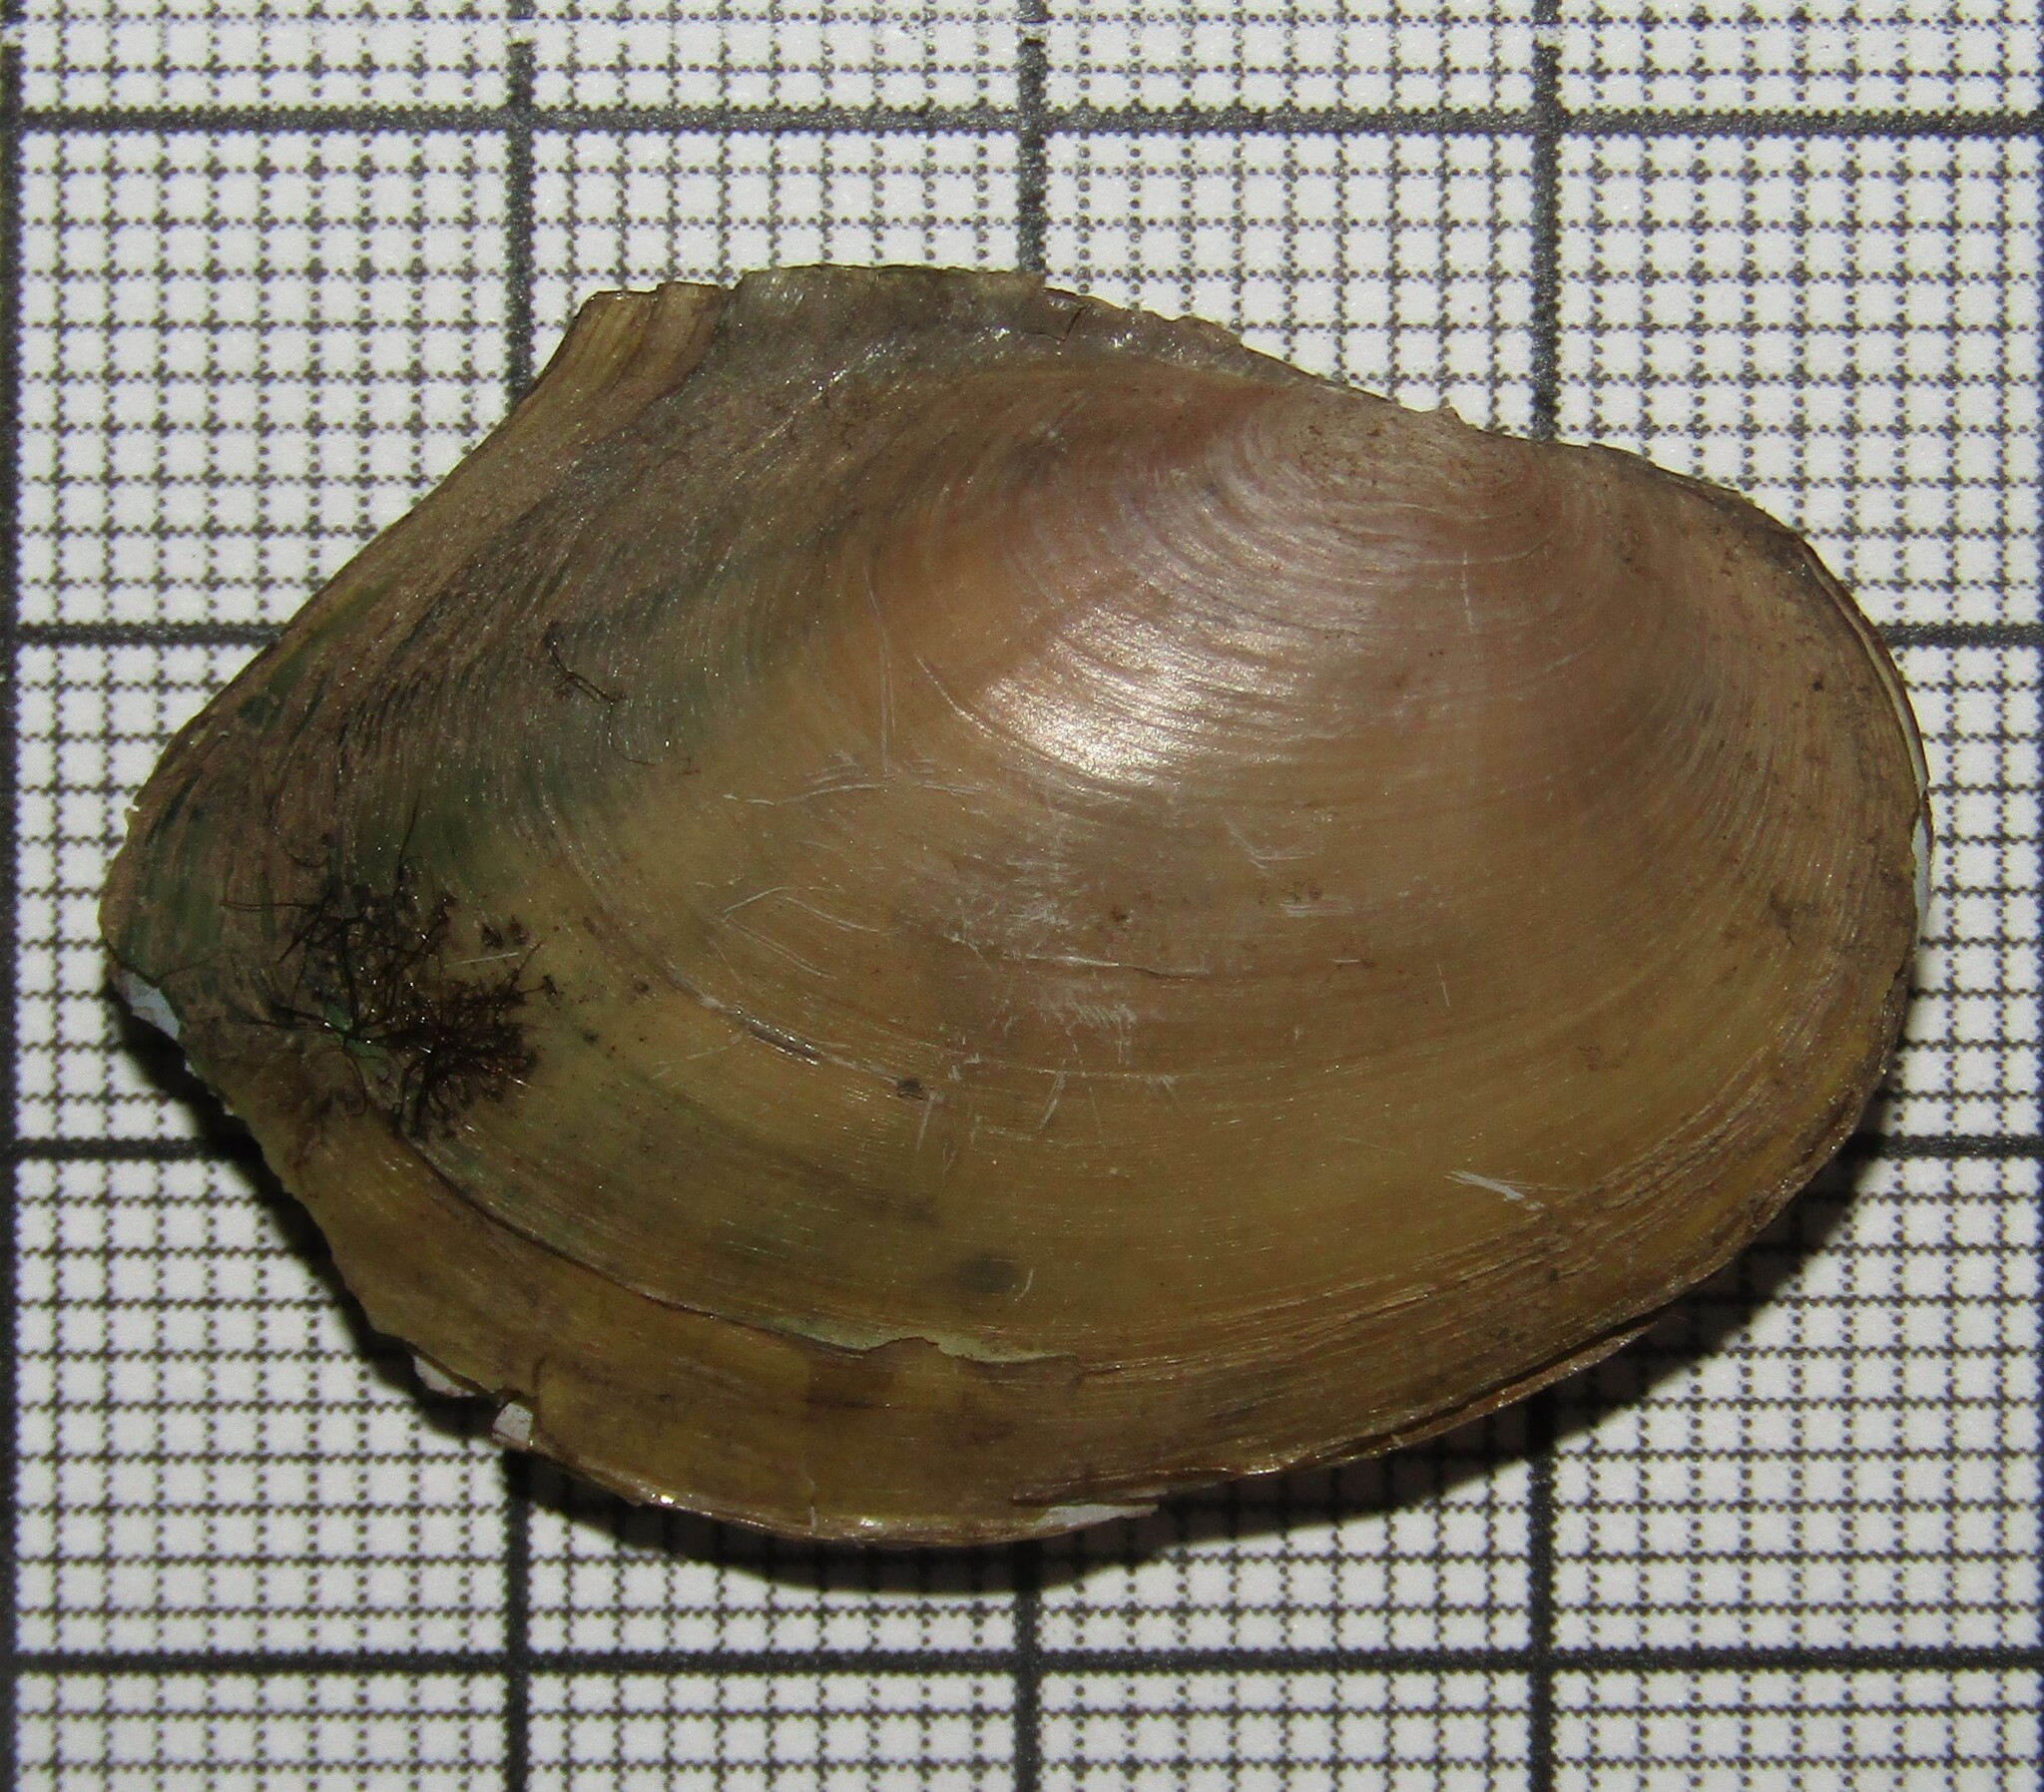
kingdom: Animalia
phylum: Mollusca
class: Bivalvia
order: Unionida
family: Unionidae
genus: Anodonta
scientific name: Anodonta anatina
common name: Duck mussel
